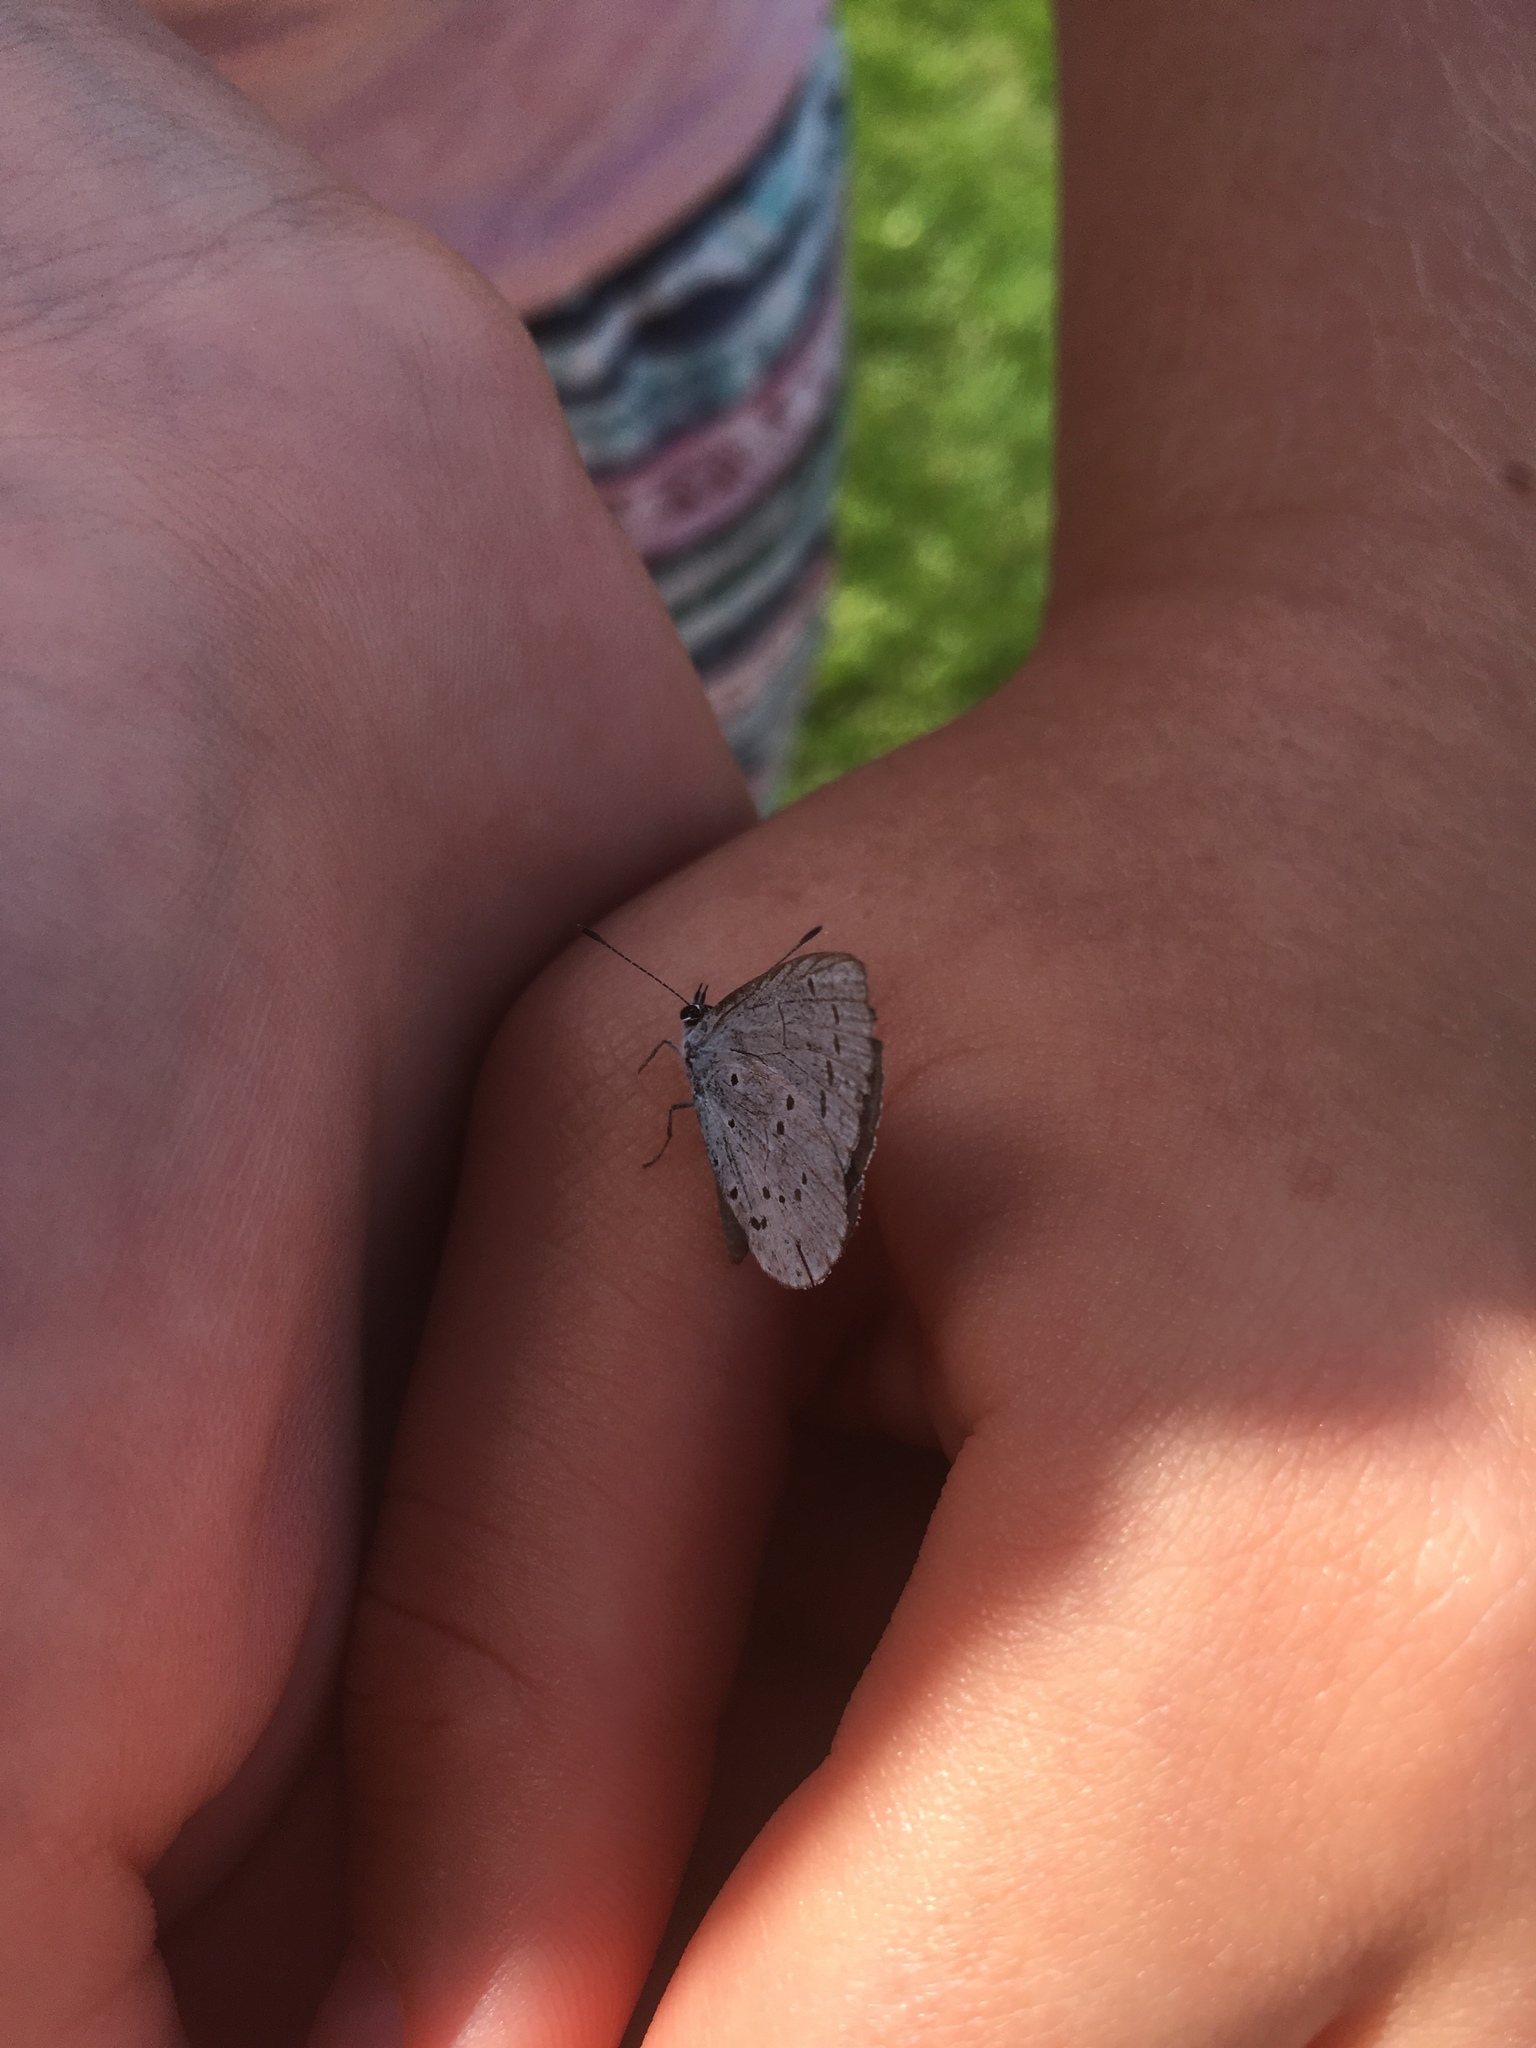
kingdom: Animalia
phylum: Arthropoda
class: Insecta
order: Lepidoptera
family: Lycaenidae
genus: Celastrina
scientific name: Celastrina argiolus
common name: Holly blue
